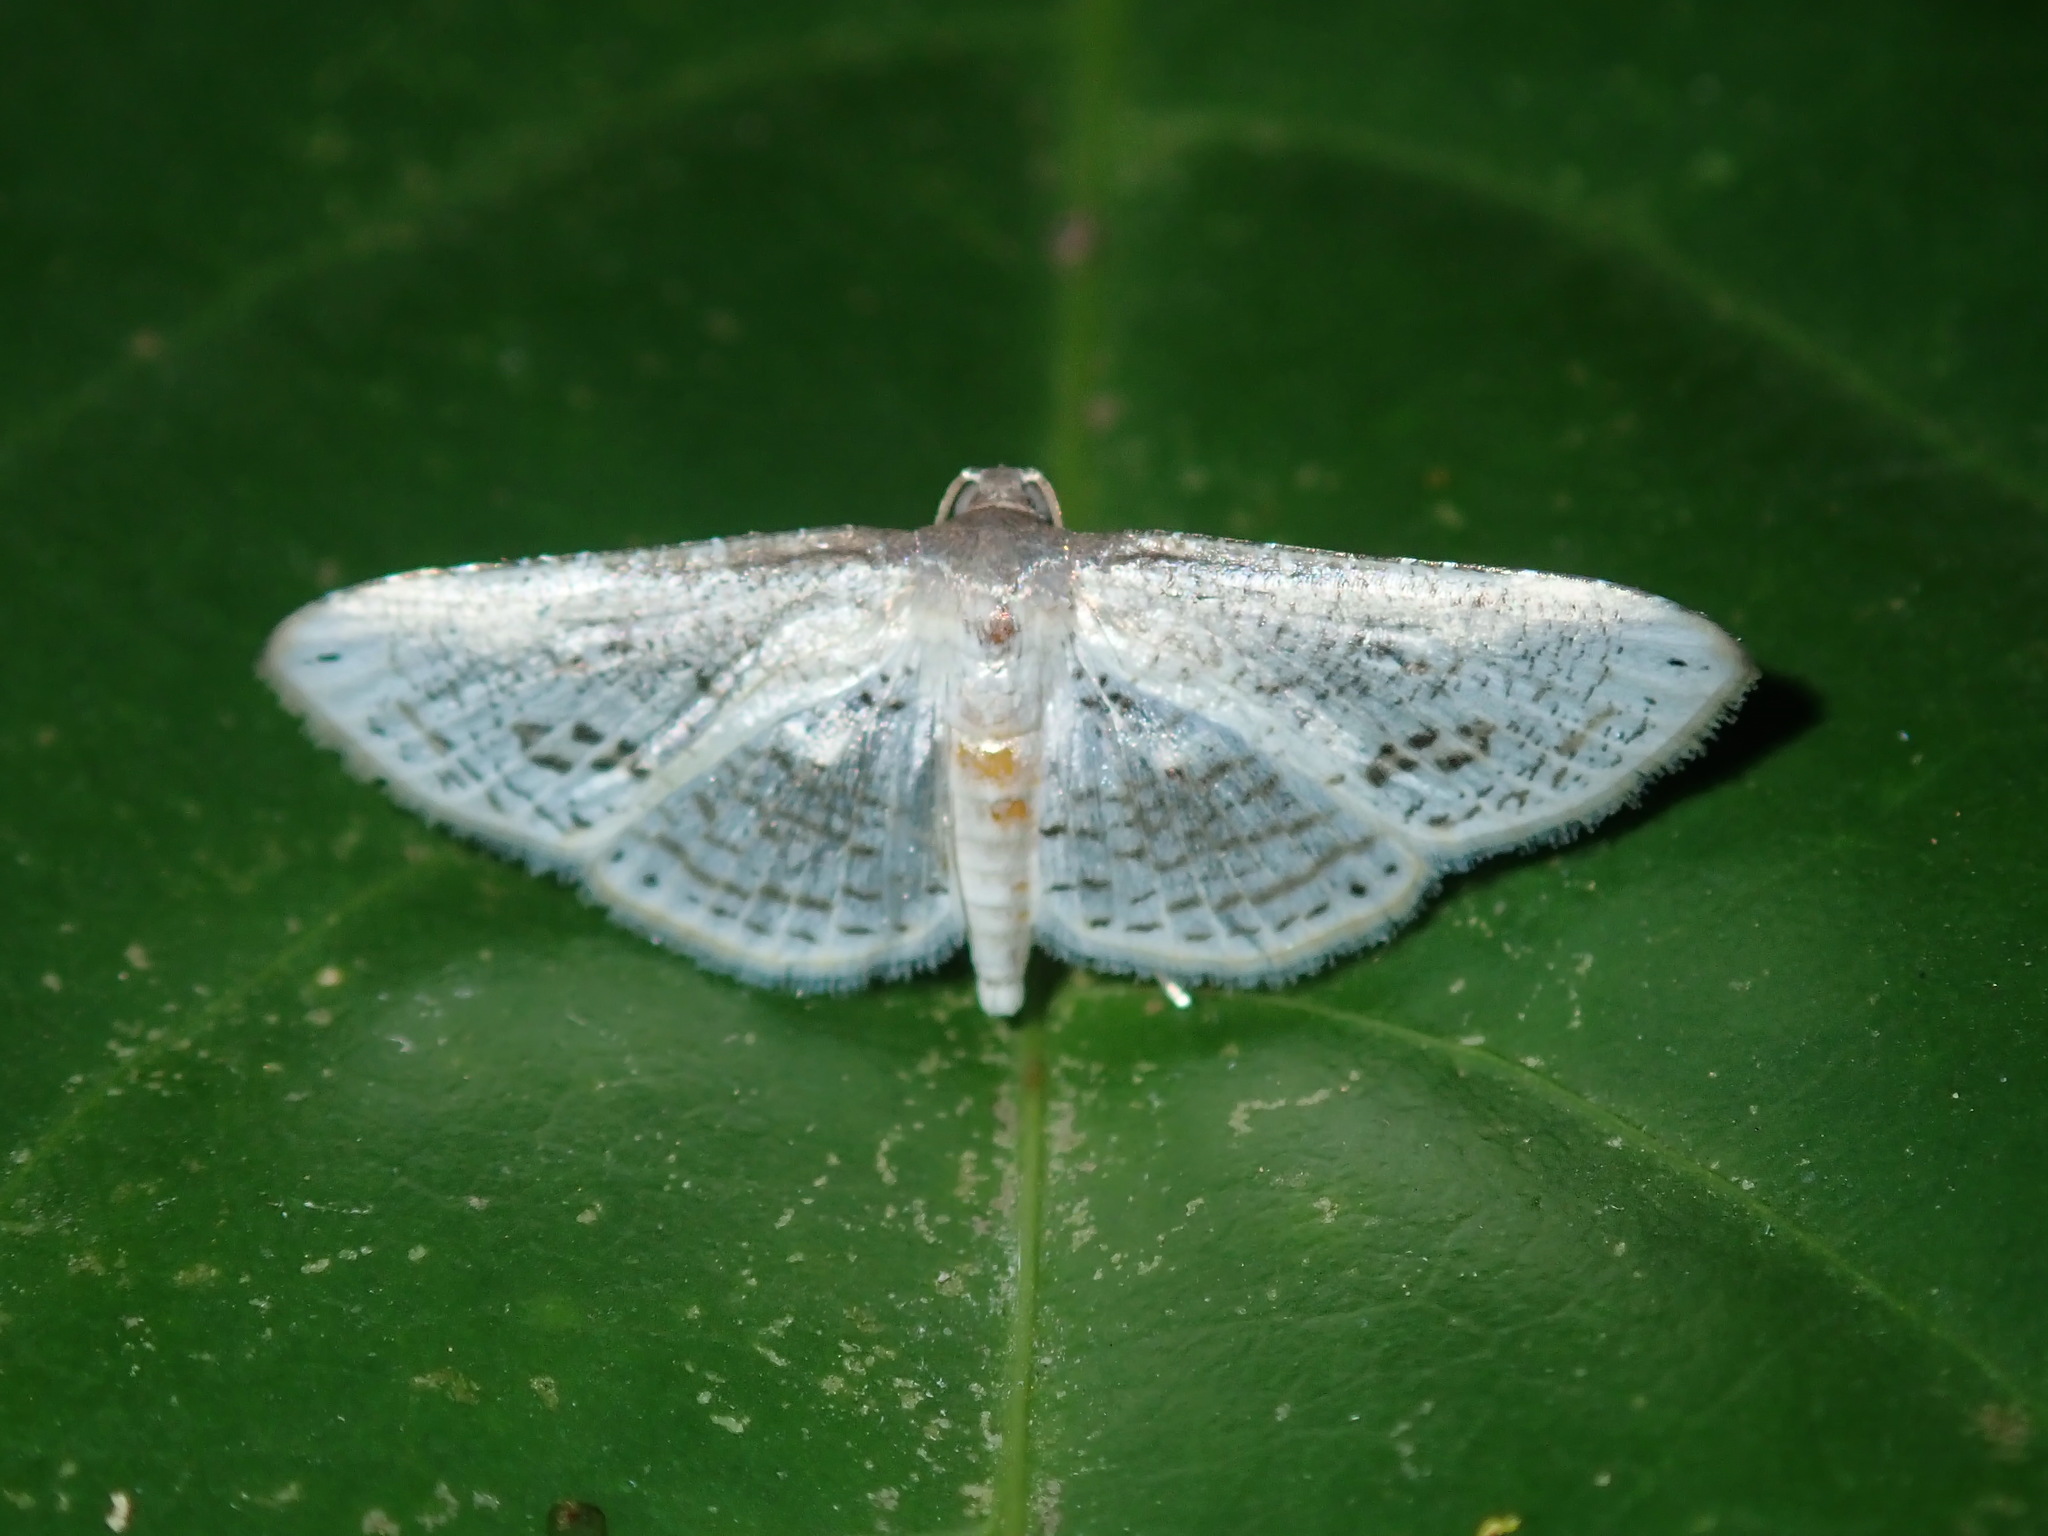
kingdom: Animalia
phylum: Arthropoda
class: Insecta
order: Lepidoptera
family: Thyrididae
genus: Calindoea
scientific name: Calindoea
